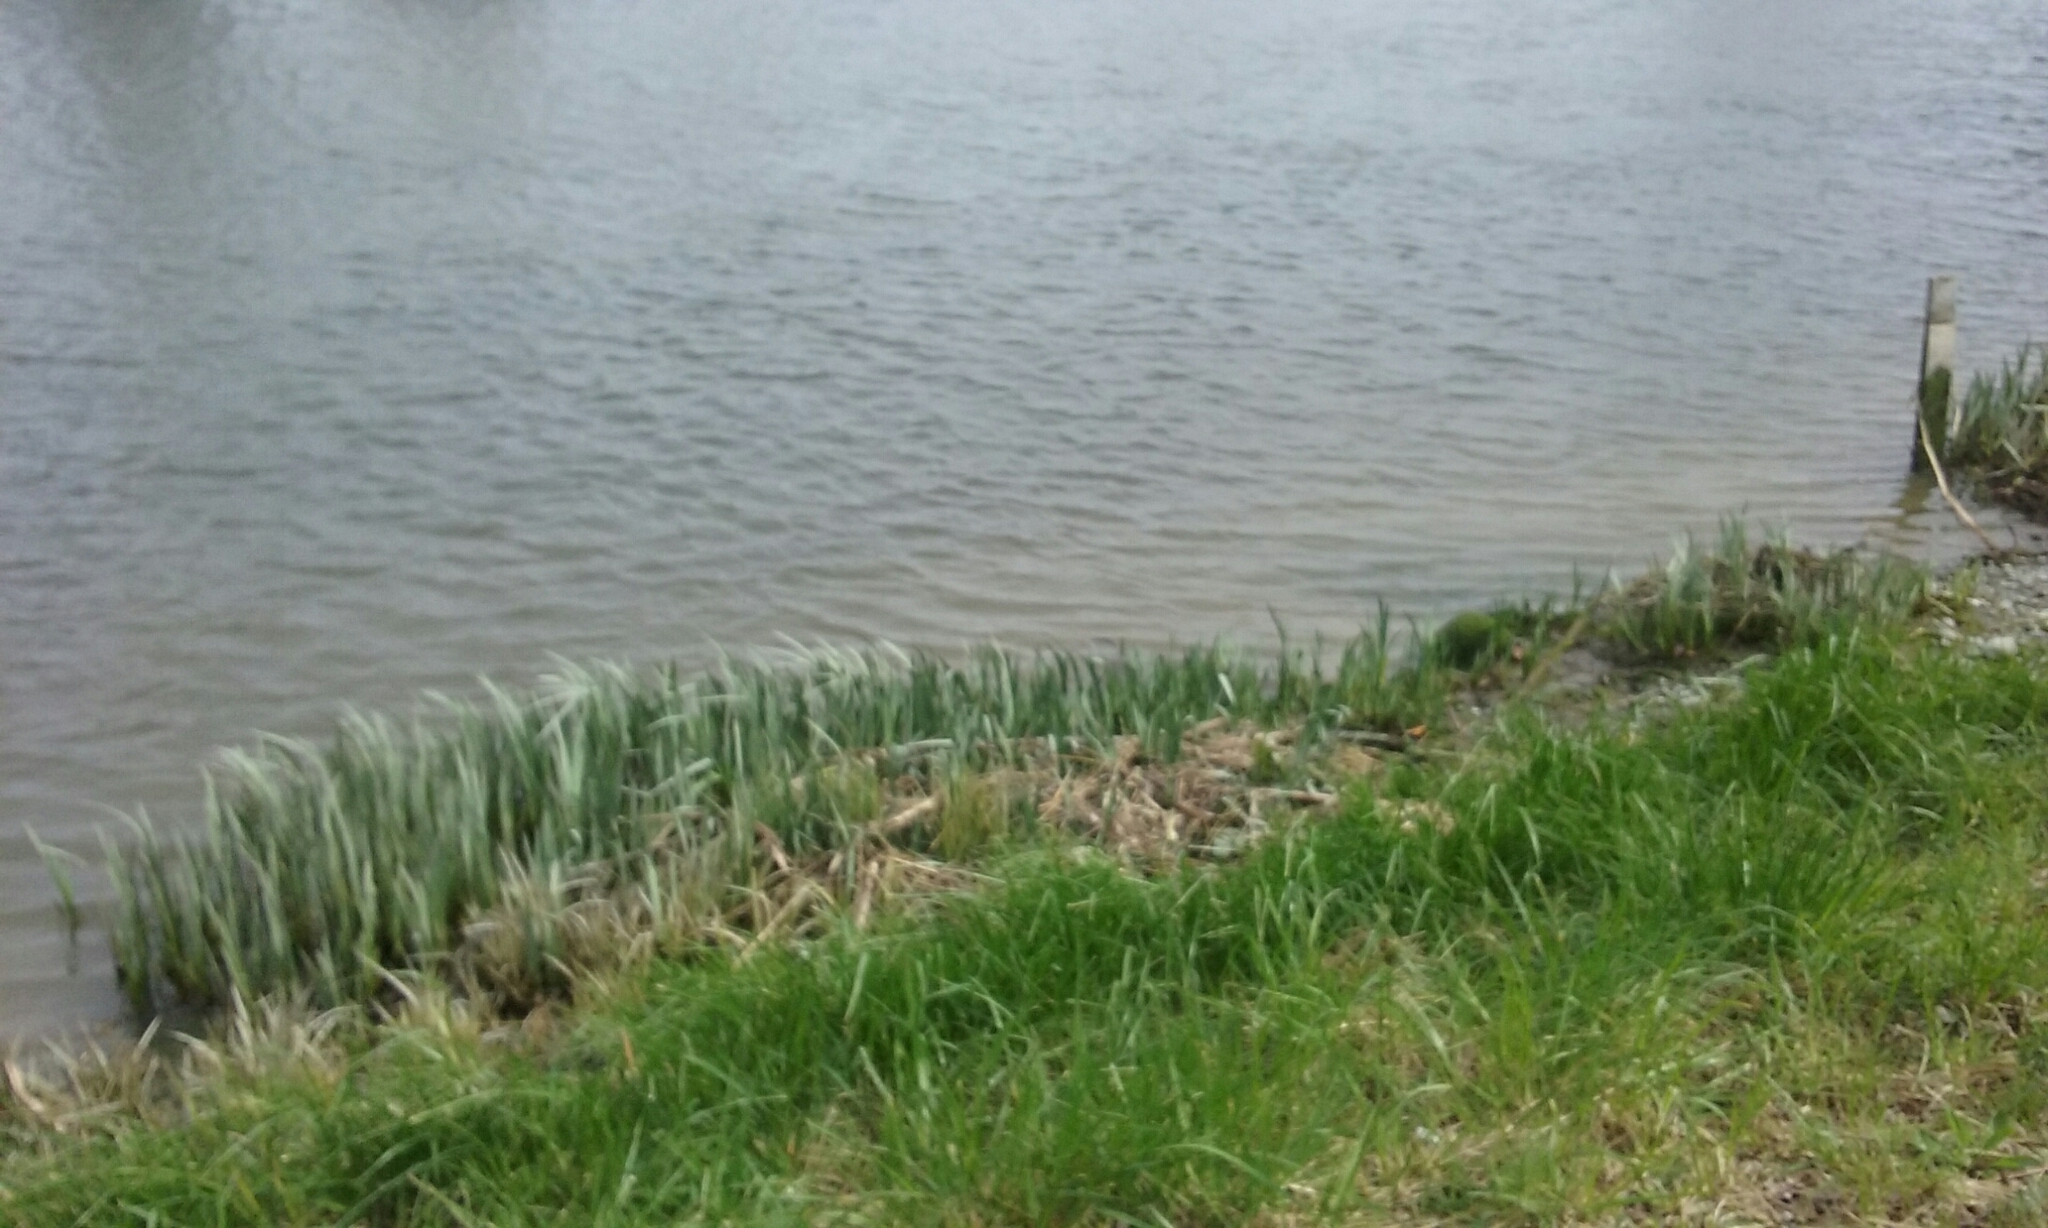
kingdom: Plantae
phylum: Tracheophyta
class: Liliopsida
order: Asparagales
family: Iridaceae
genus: Iris
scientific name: Iris pseudacorus
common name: Yellow flag
